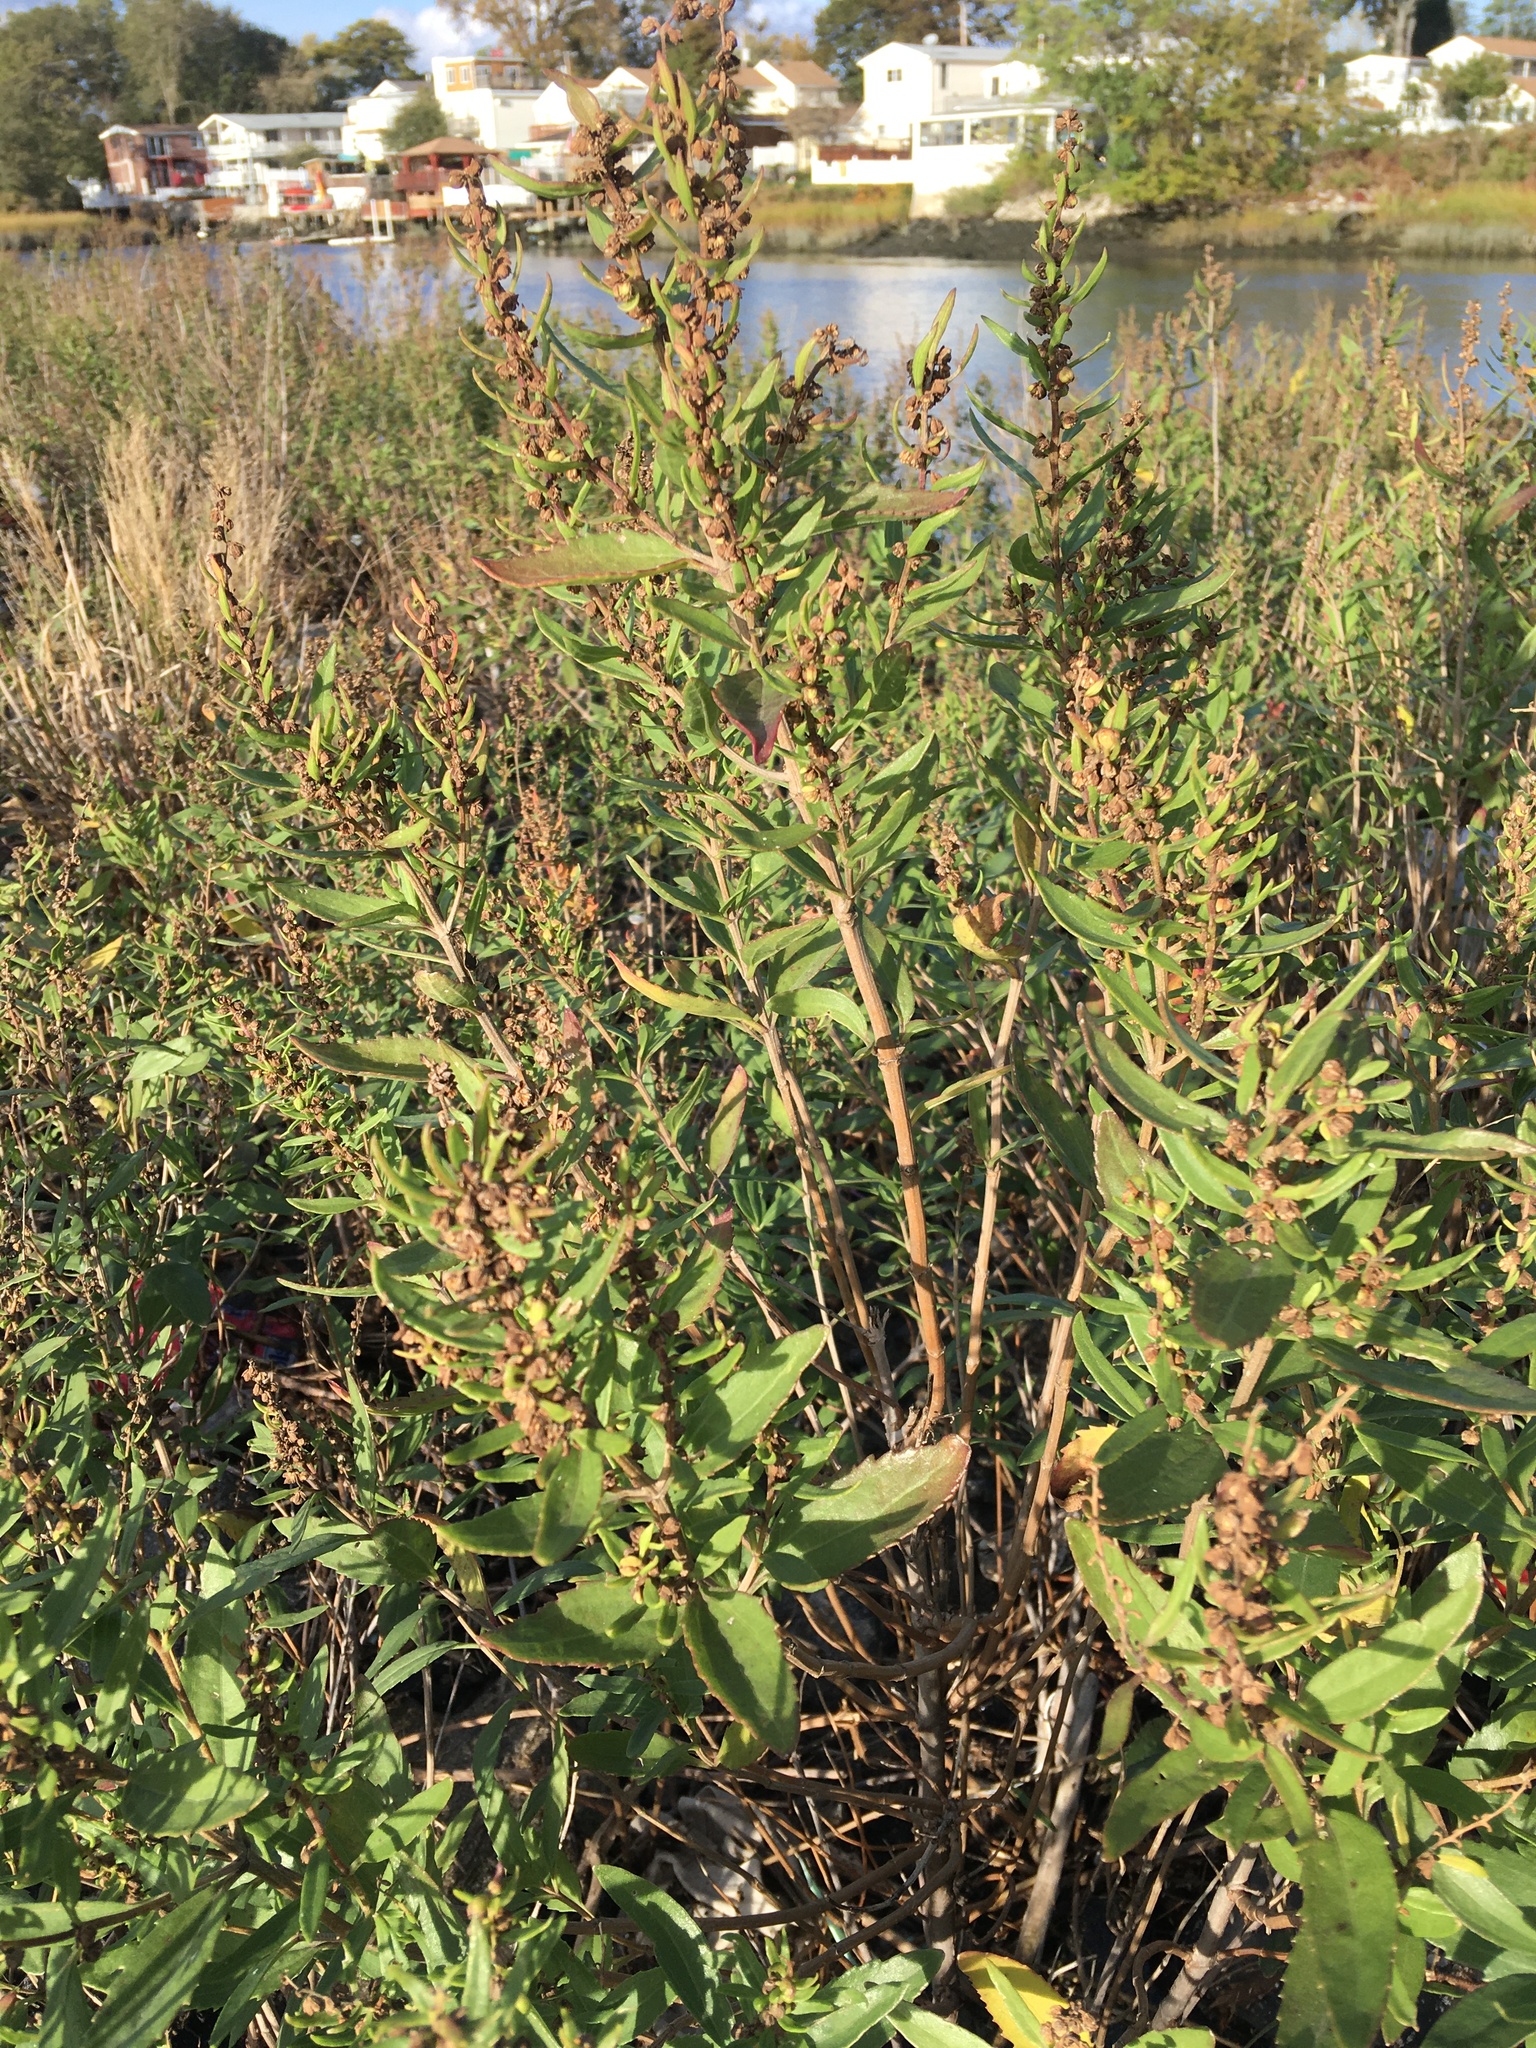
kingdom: Plantae
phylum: Tracheophyta
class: Magnoliopsida
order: Asterales
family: Asteraceae
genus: Iva
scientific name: Iva frutescens
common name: Big-leaved marsh-elder
